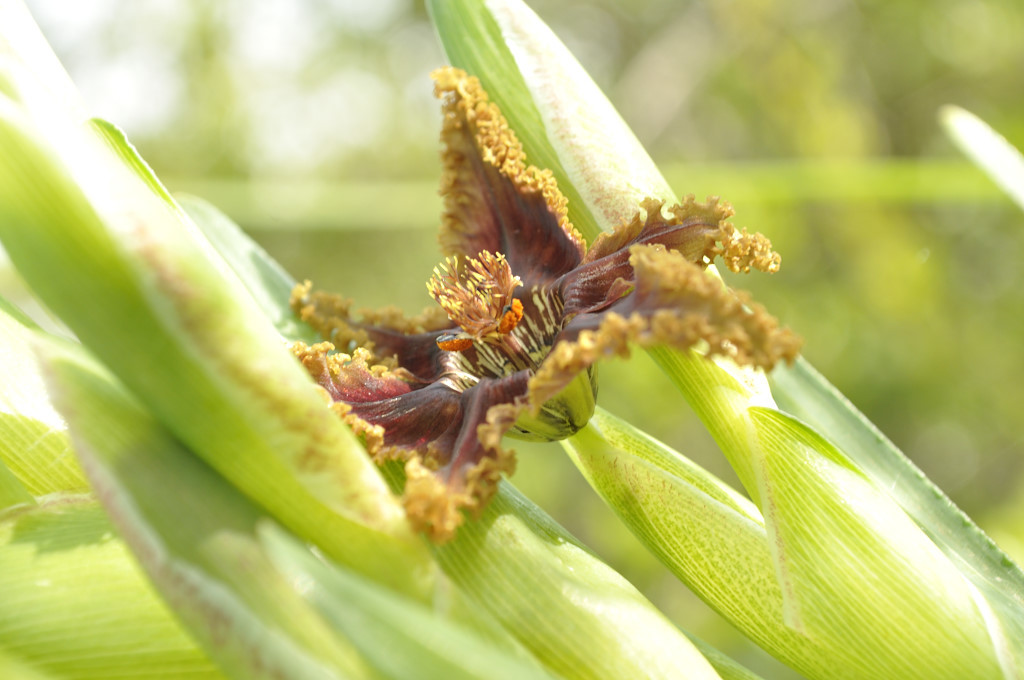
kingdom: Plantae
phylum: Tracheophyta
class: Liliopsida
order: Asparagales
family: Iridaceae
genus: Ferraria
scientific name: Ferraria crispa
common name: Black-flag
